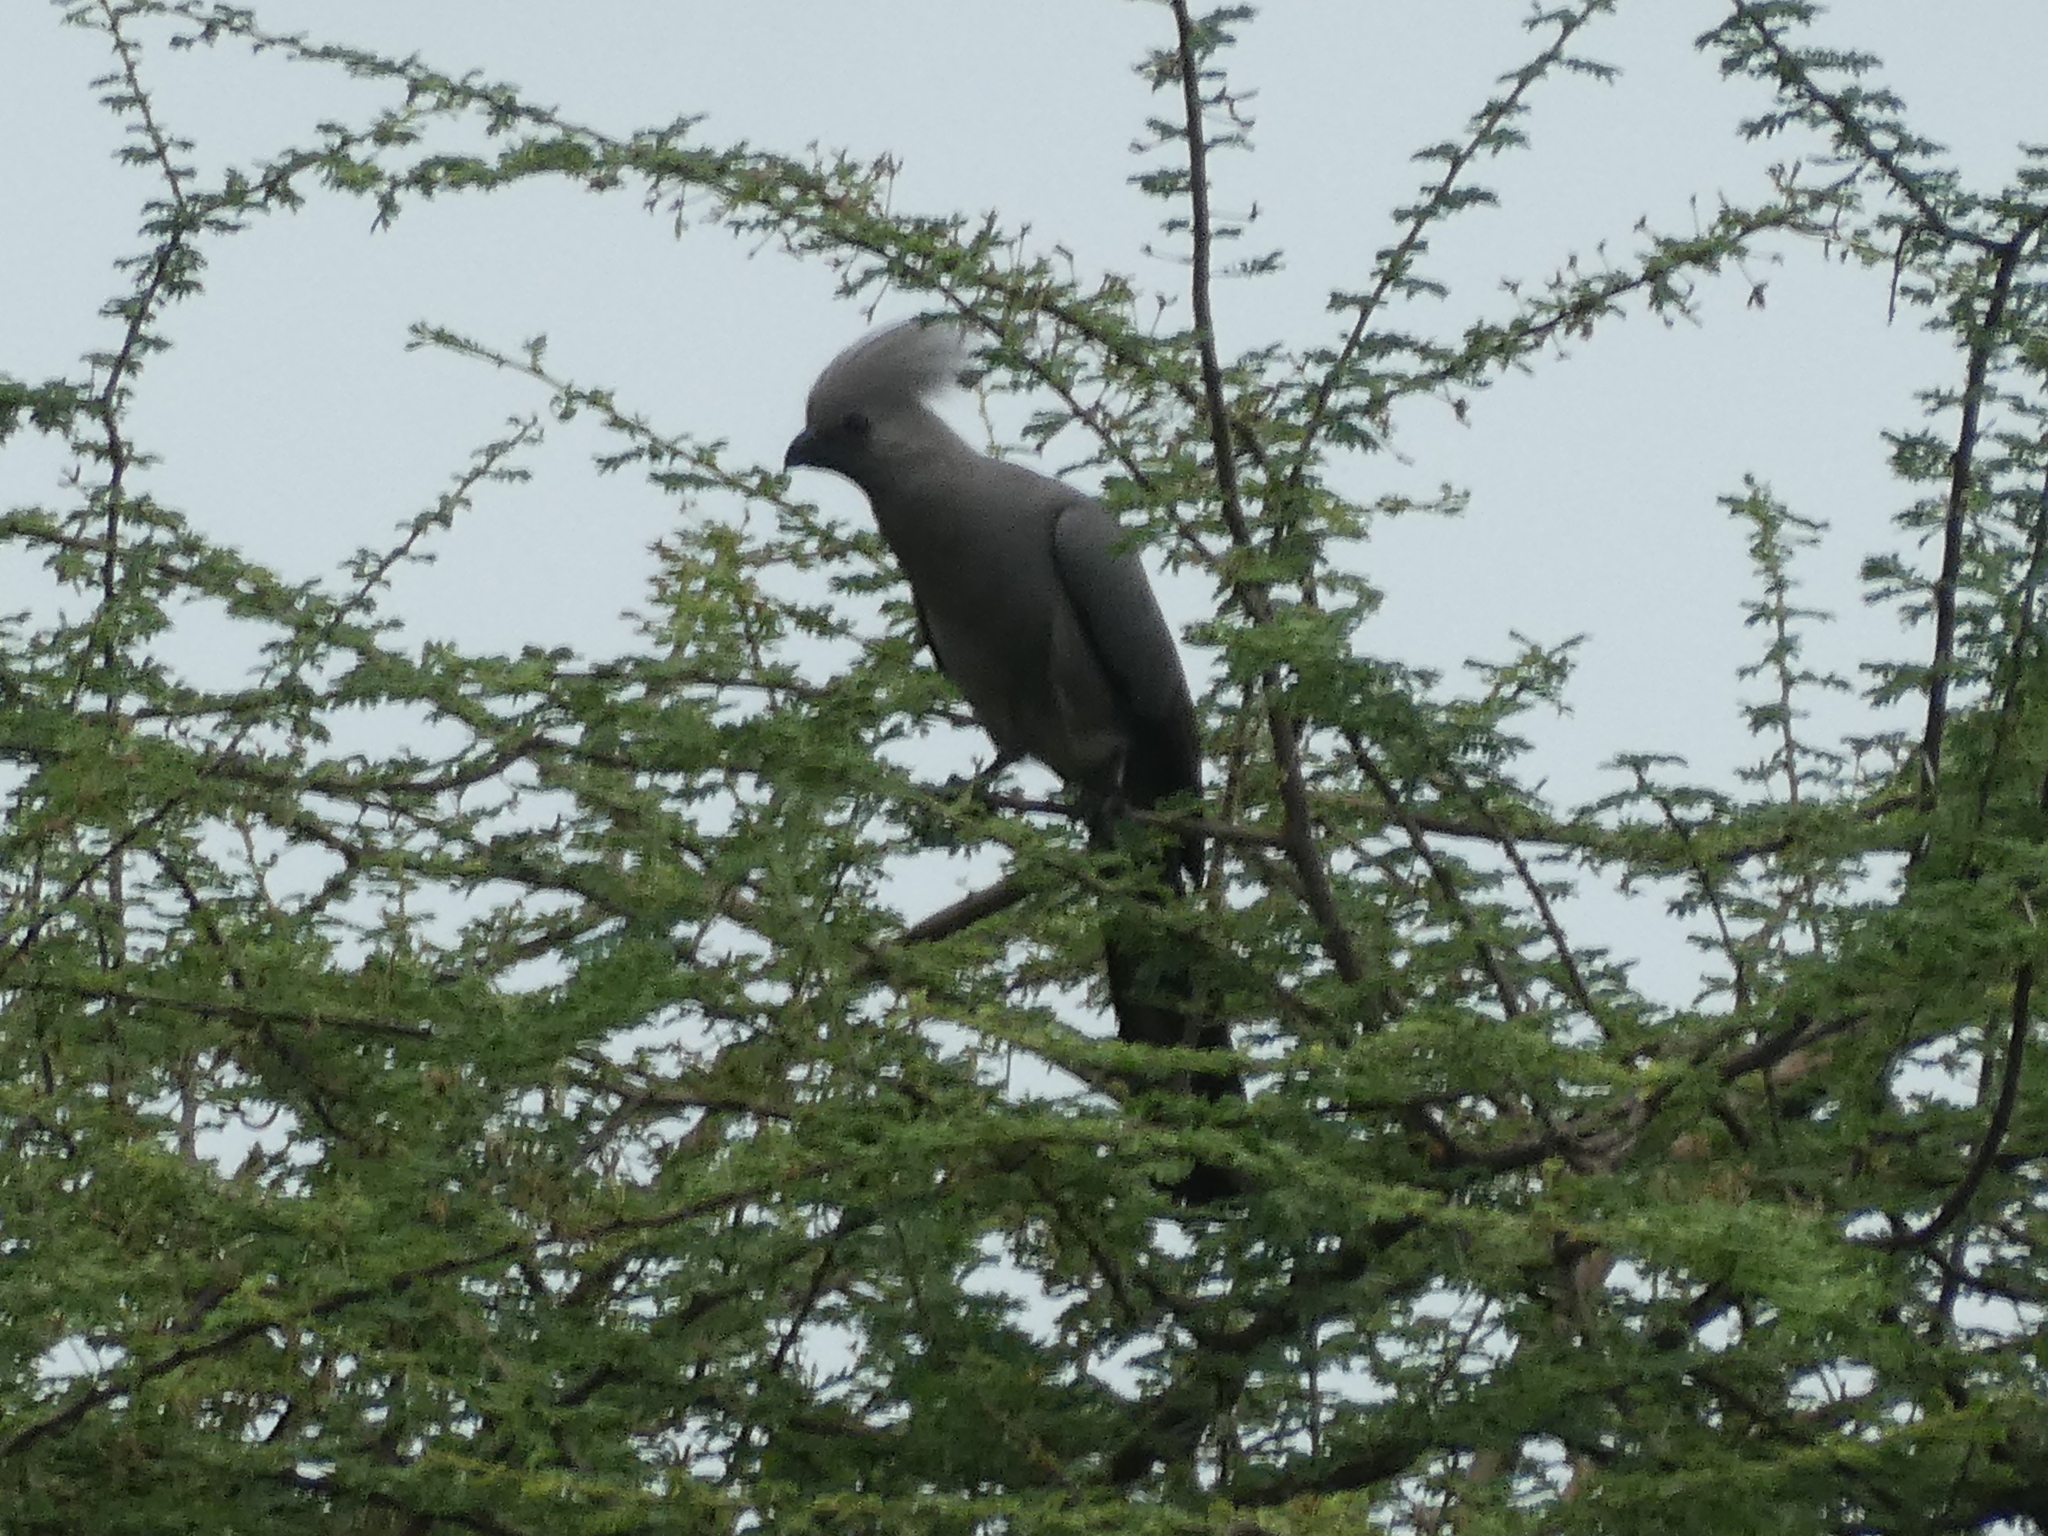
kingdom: Animalia
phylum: Chordata
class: Aves
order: Musophagiformes
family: Musophagidae
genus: Corythaixoides
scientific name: Corythaixoides concolor
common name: Grey go-away-bird
